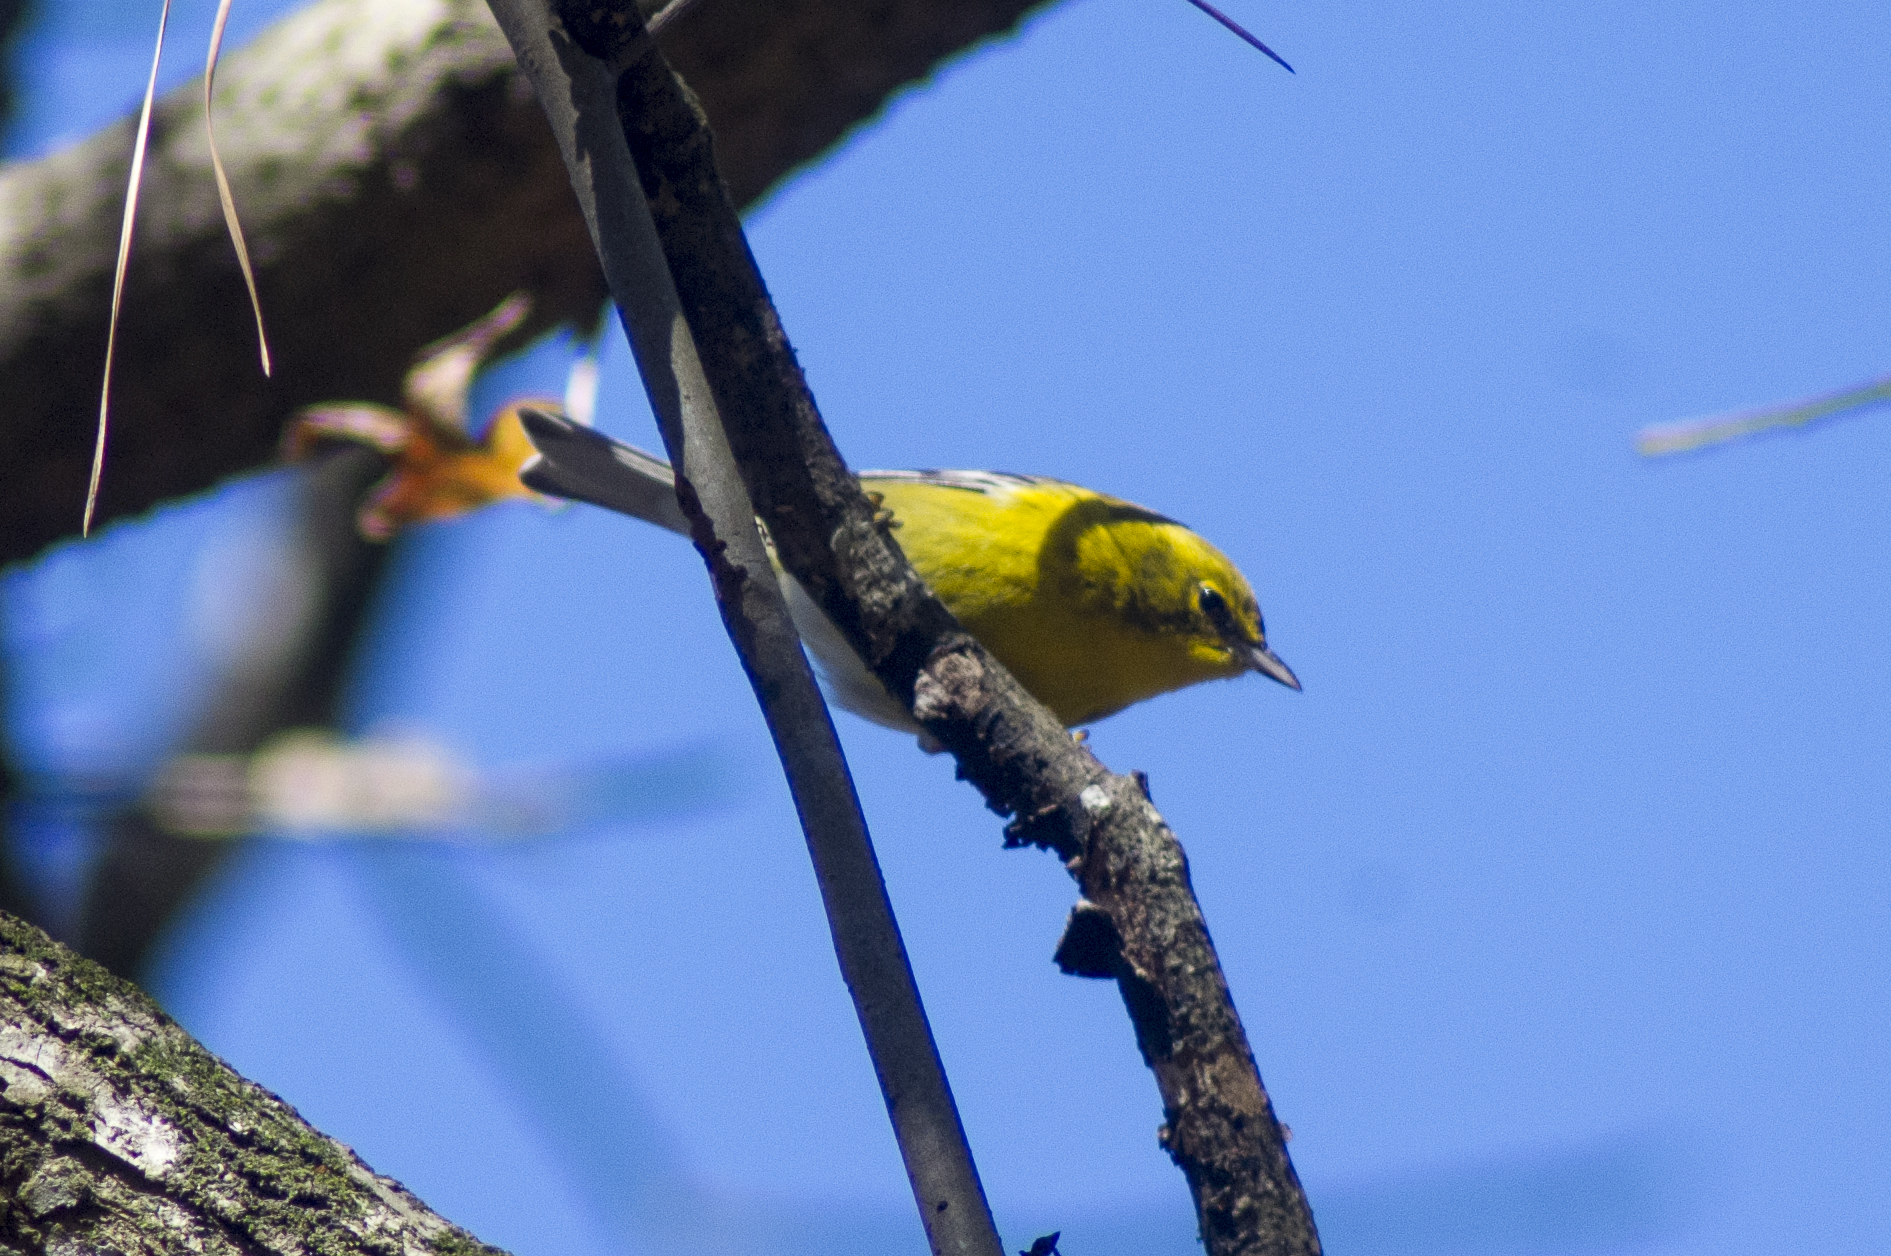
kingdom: Animalia
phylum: Chordata
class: Aves
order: Passeriformes
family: Parulidae
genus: Setophaga
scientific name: Setophaga pinus
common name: Pine warbler
